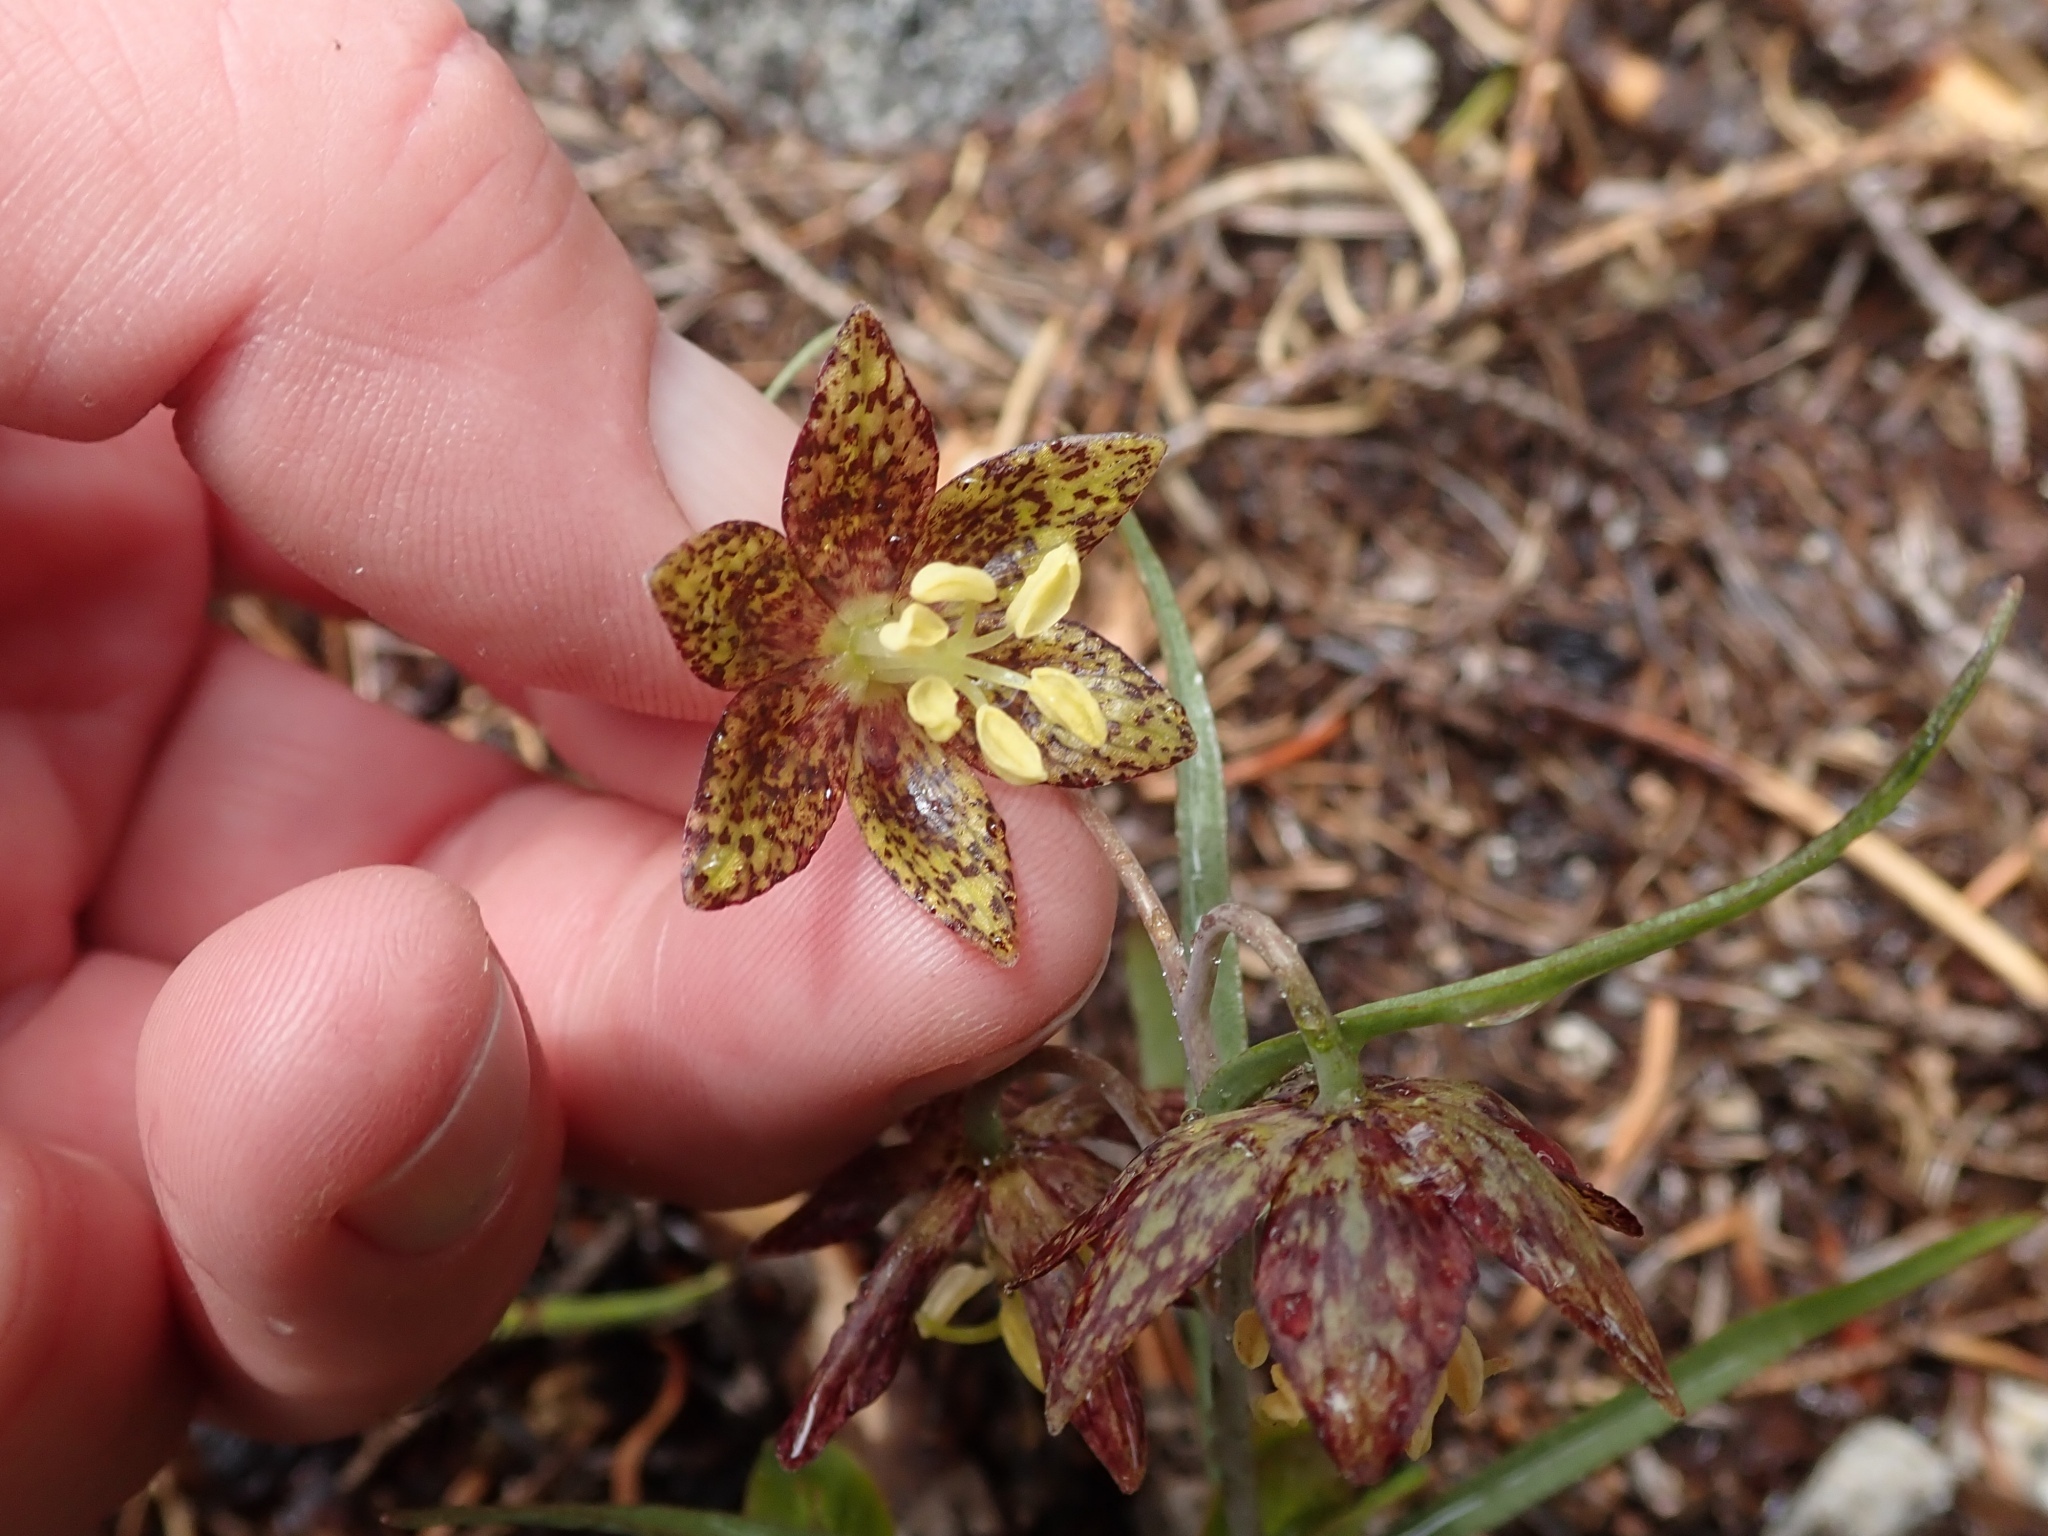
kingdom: Plantae
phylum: Tracheophyta
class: Liliopsida
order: Liliales
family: Liliaceae
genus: Fritillaria
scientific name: Fritillaria atropurpurea
